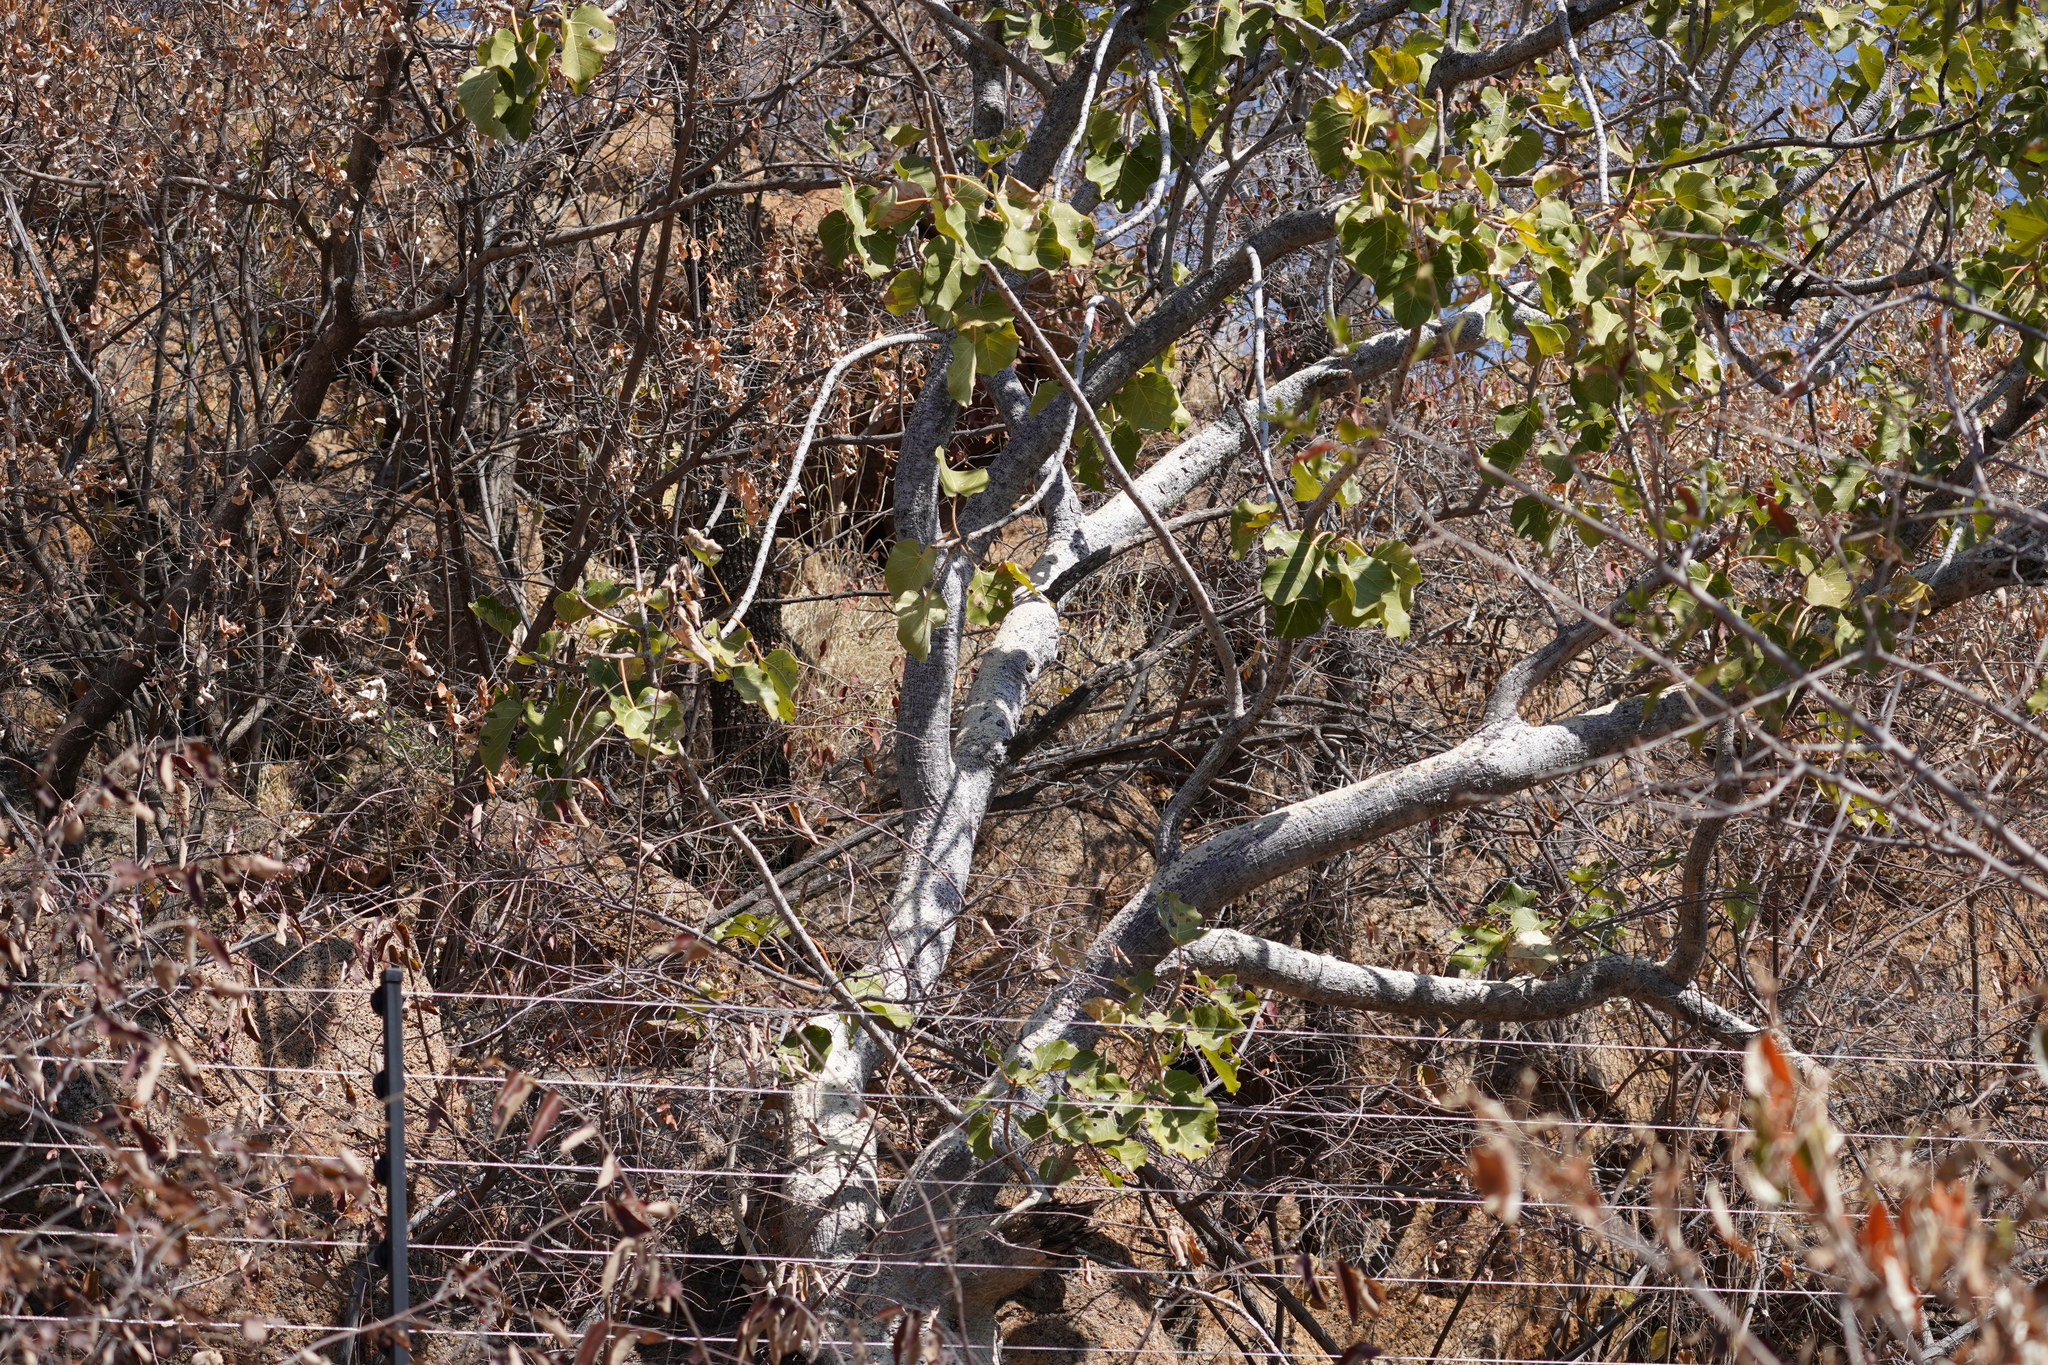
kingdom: Plantae
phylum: Tracheophyta
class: Magnoliopsida
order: Rosales
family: Moraceae
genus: Ficus
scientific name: Ficus abutilifolia
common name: Large-leaved rock fig
